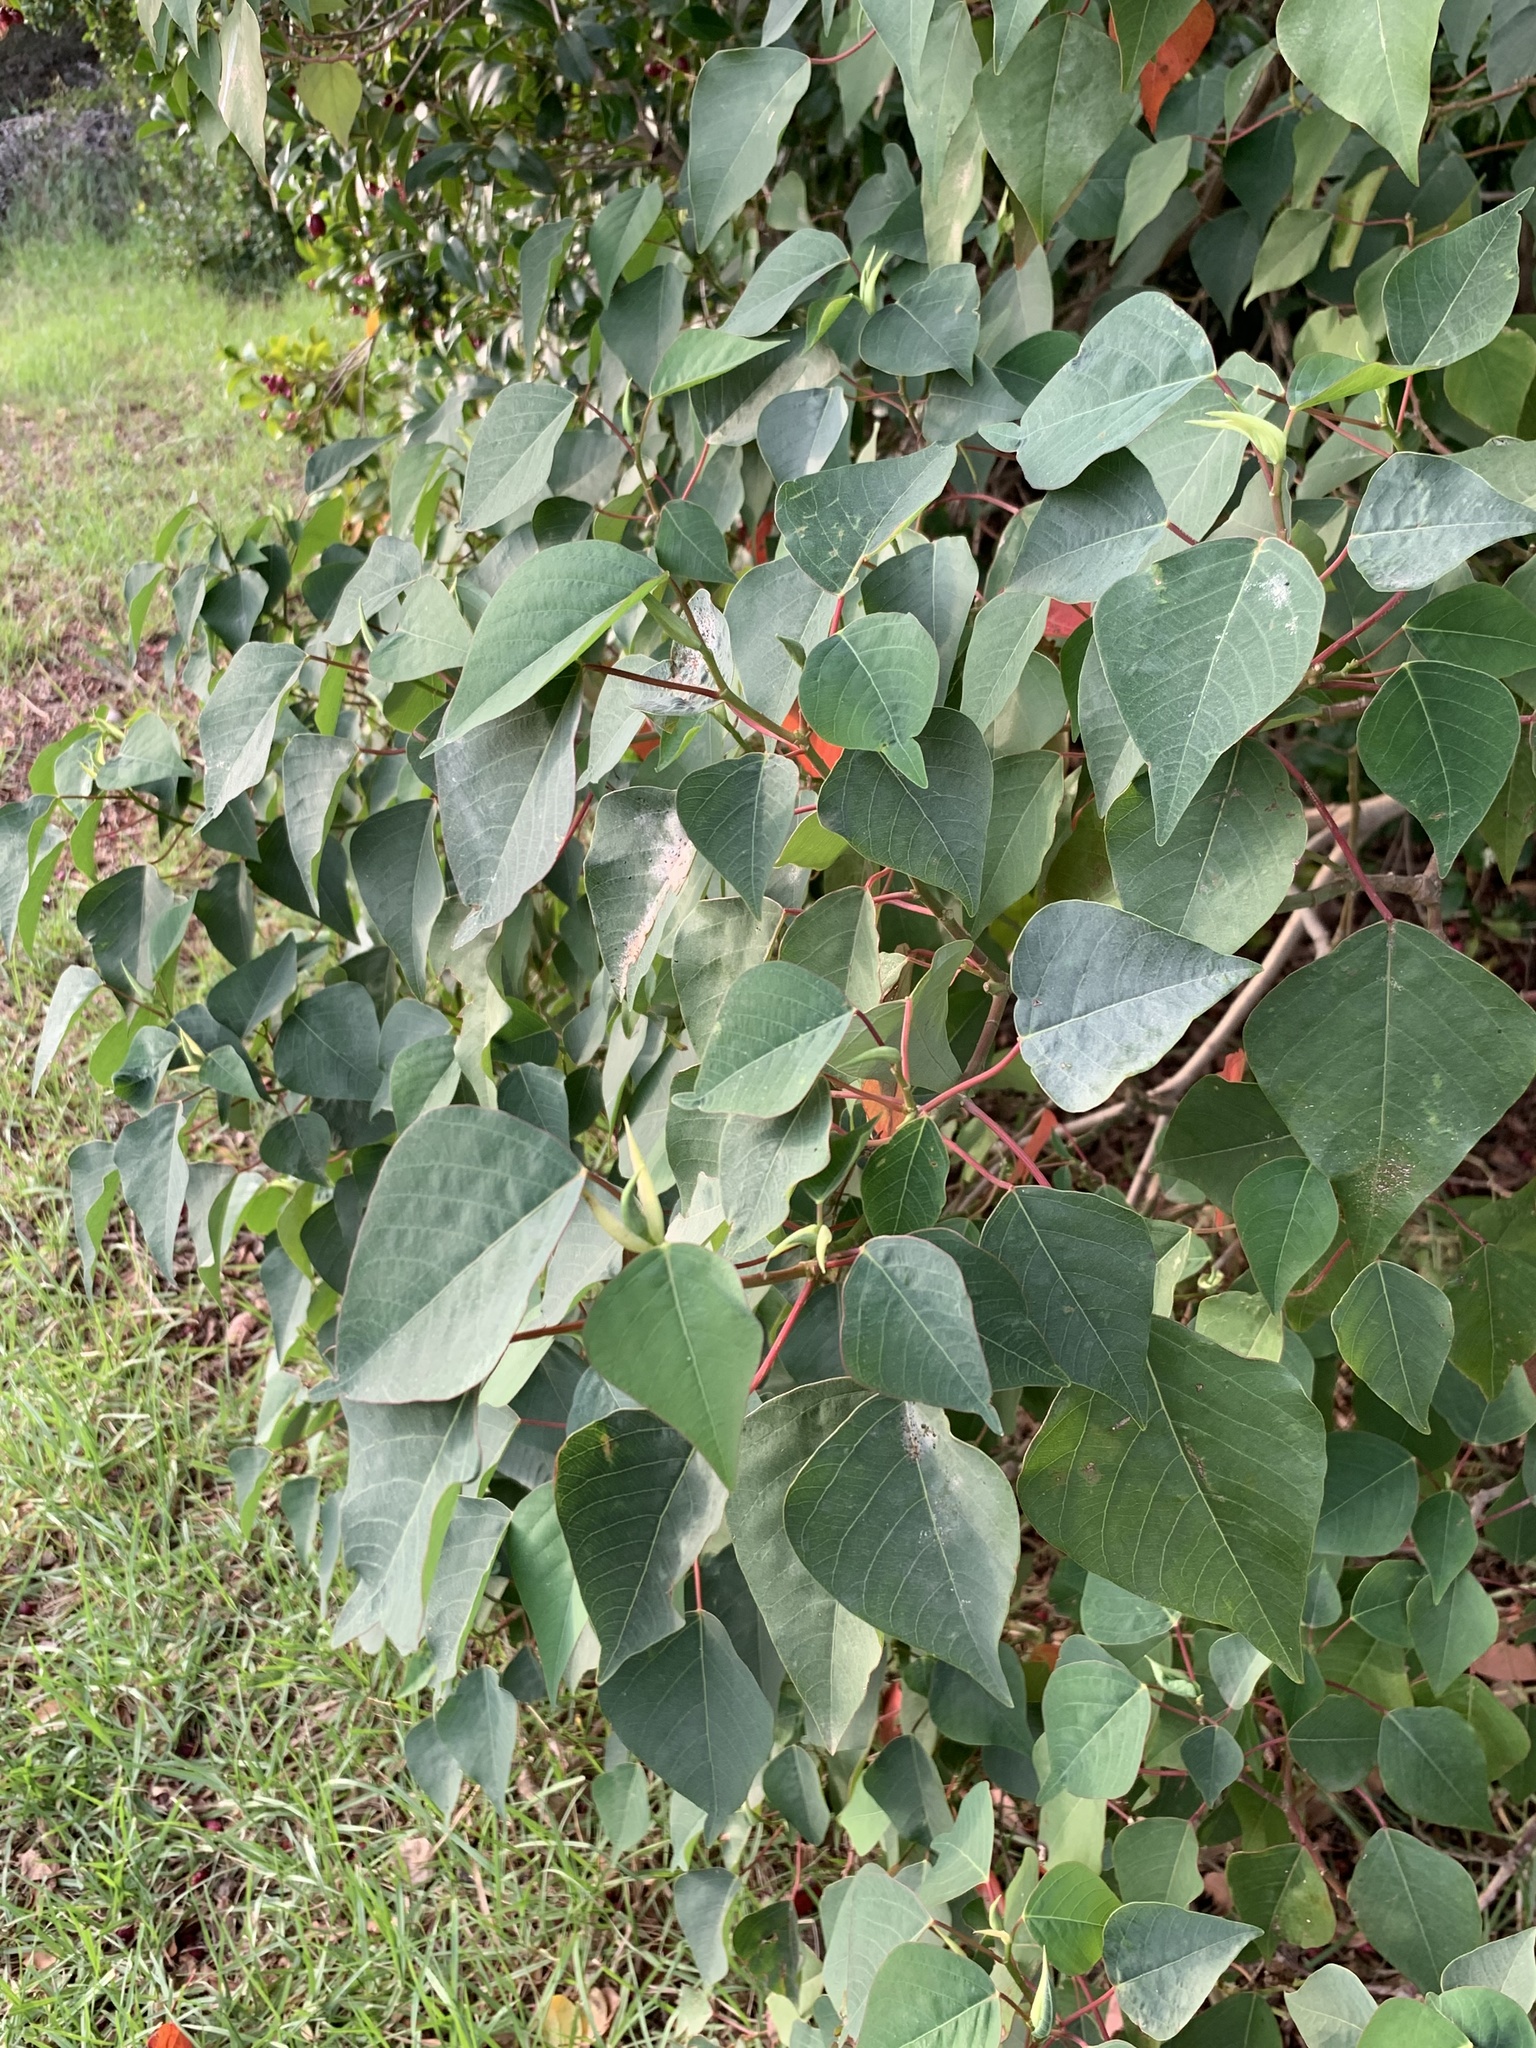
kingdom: Plantae
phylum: Tracheophyta
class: Magnoliopsida
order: Malpighiales
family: Euphorbiaceae
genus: Homalanthus
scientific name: Homalanthus populifolius
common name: Queensland poplar
